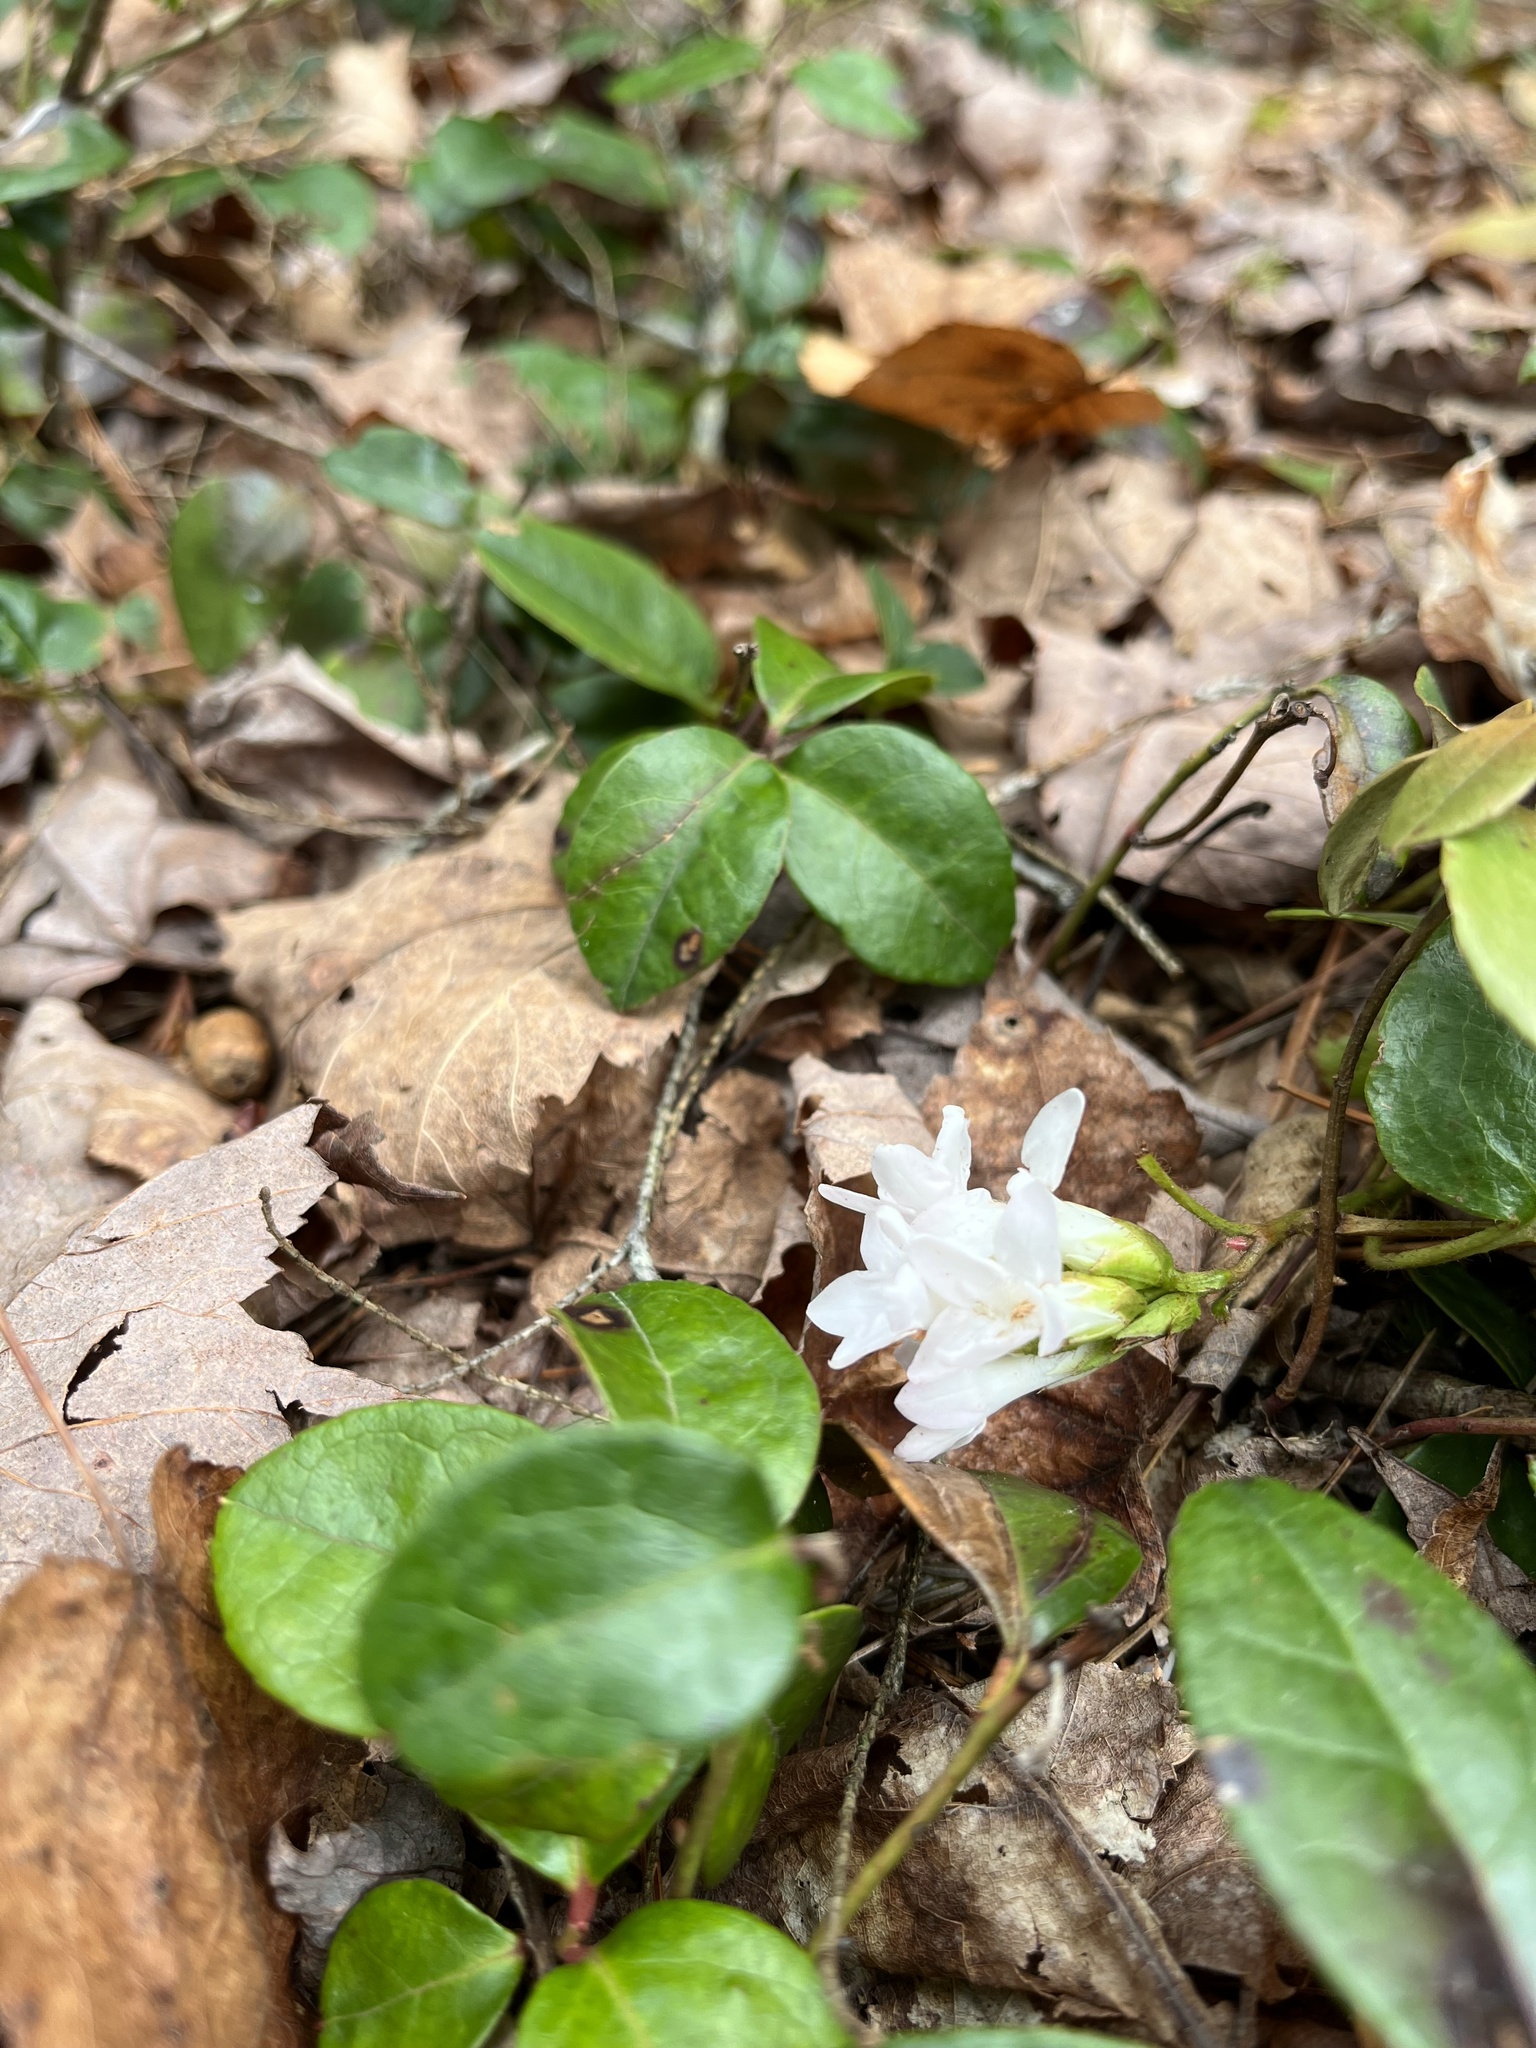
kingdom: Plantae
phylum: Tracheophyta
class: Magnoliopsida
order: Ericales
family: Ericaceae
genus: Epigaea
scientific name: Epigaea repens
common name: Gravelroot
